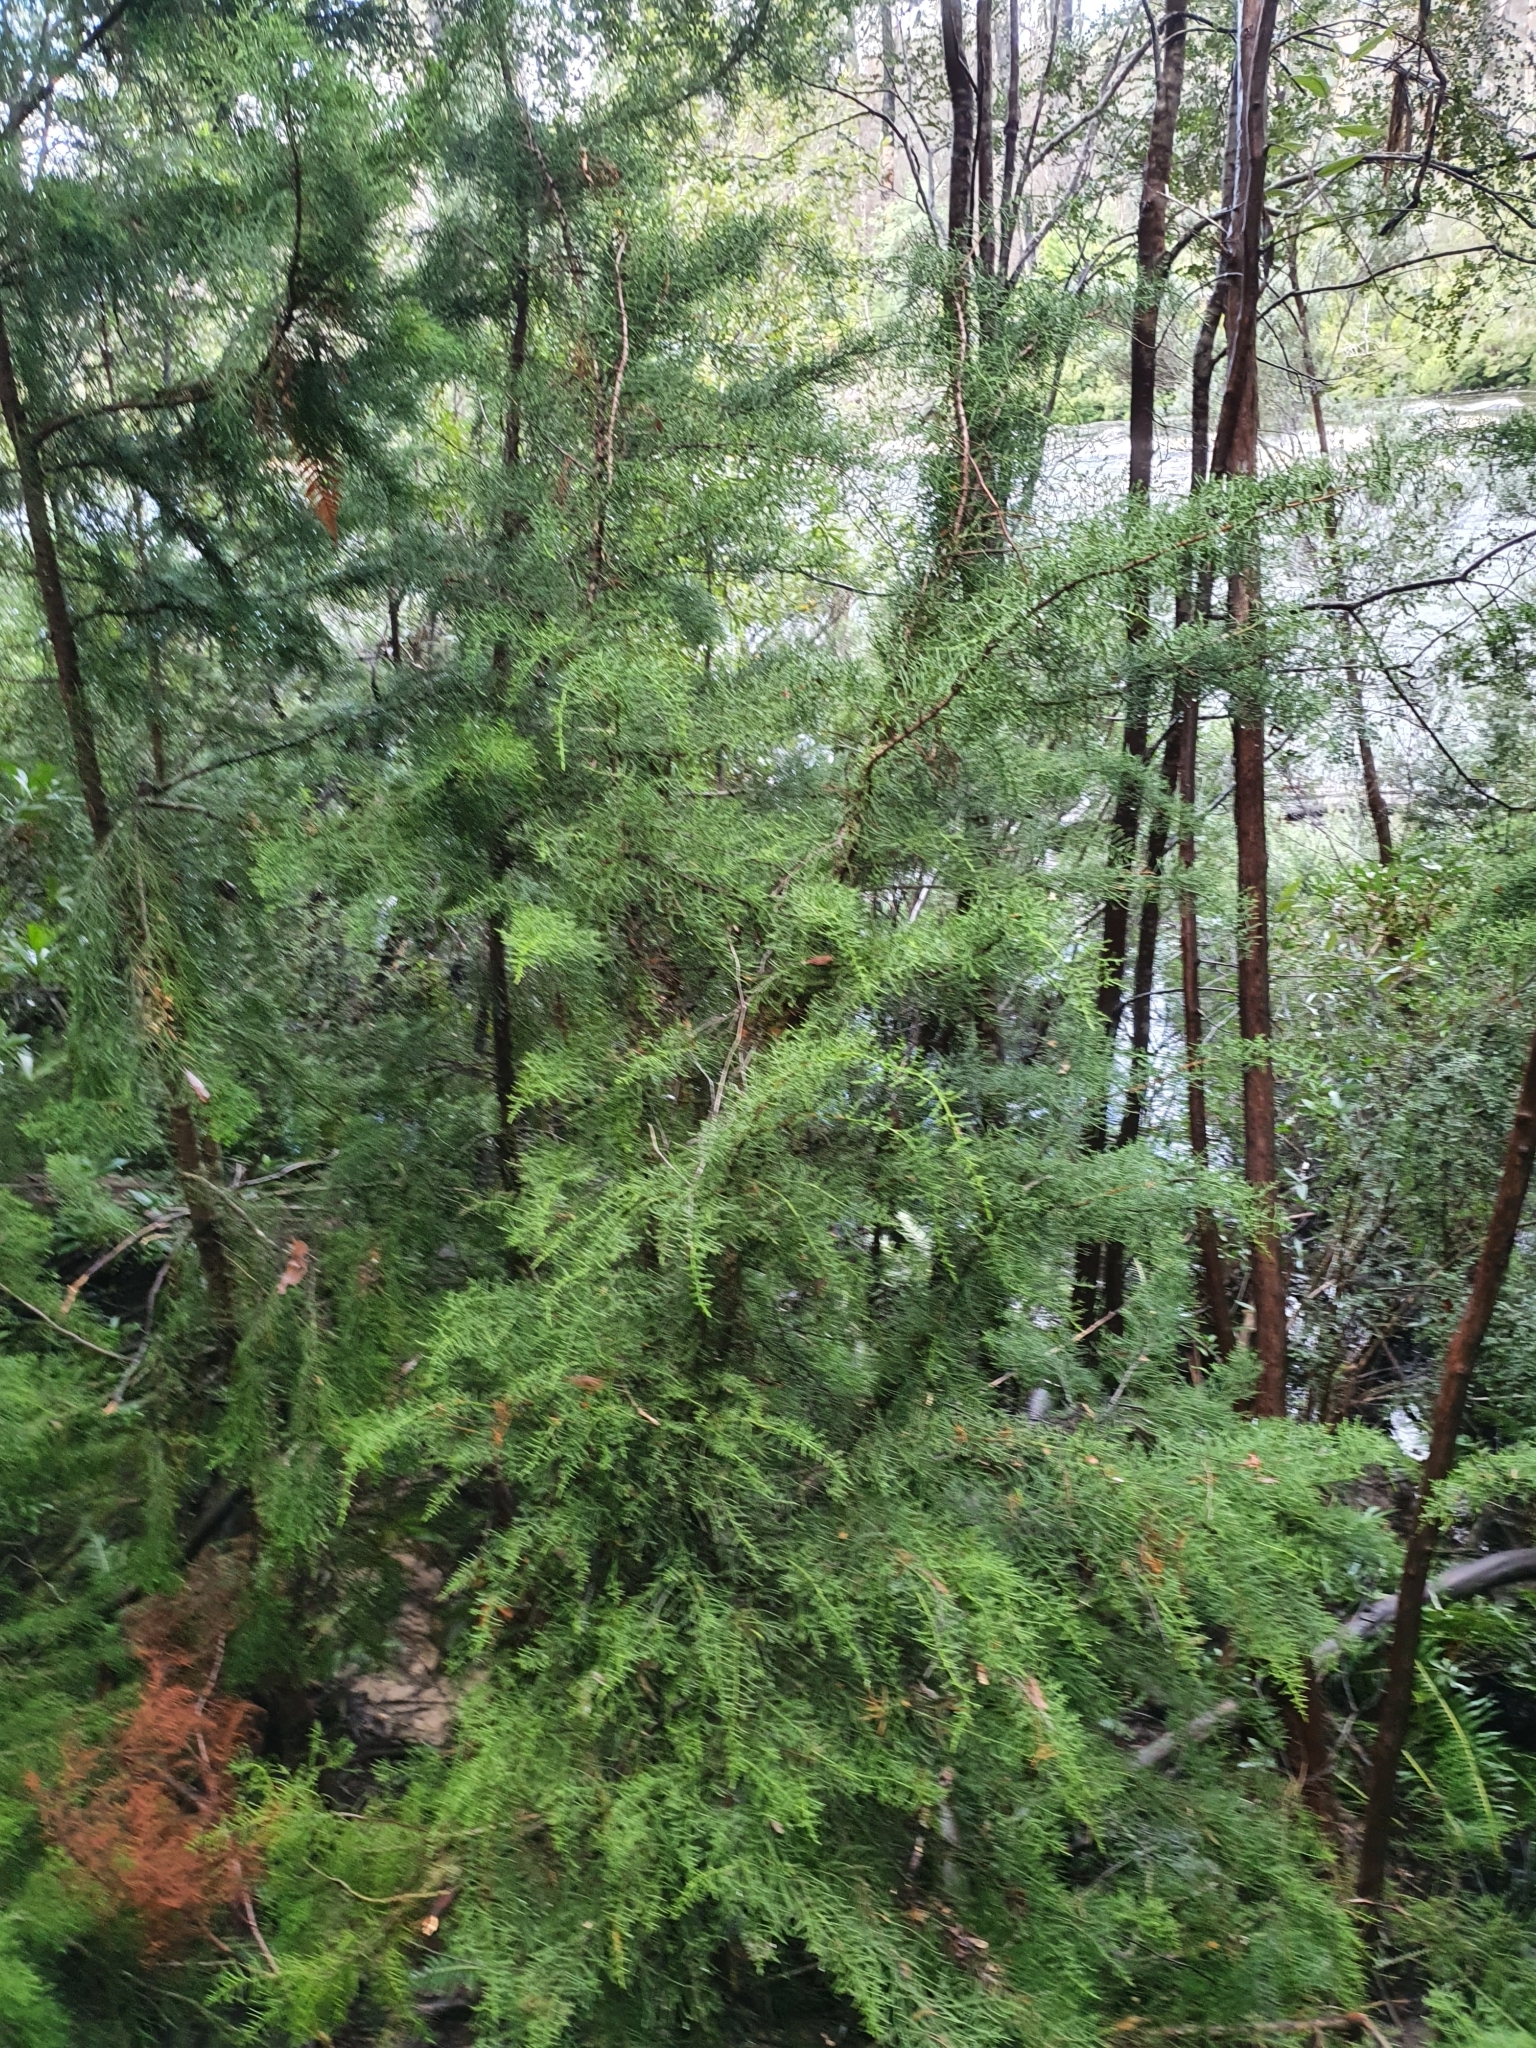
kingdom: Plantae
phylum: Tracheophyta
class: Pinopsida
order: Pinales
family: Podocarpaceae
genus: Lagarostrobos
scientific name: Lagarostrobos franklinii
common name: Huon pine
